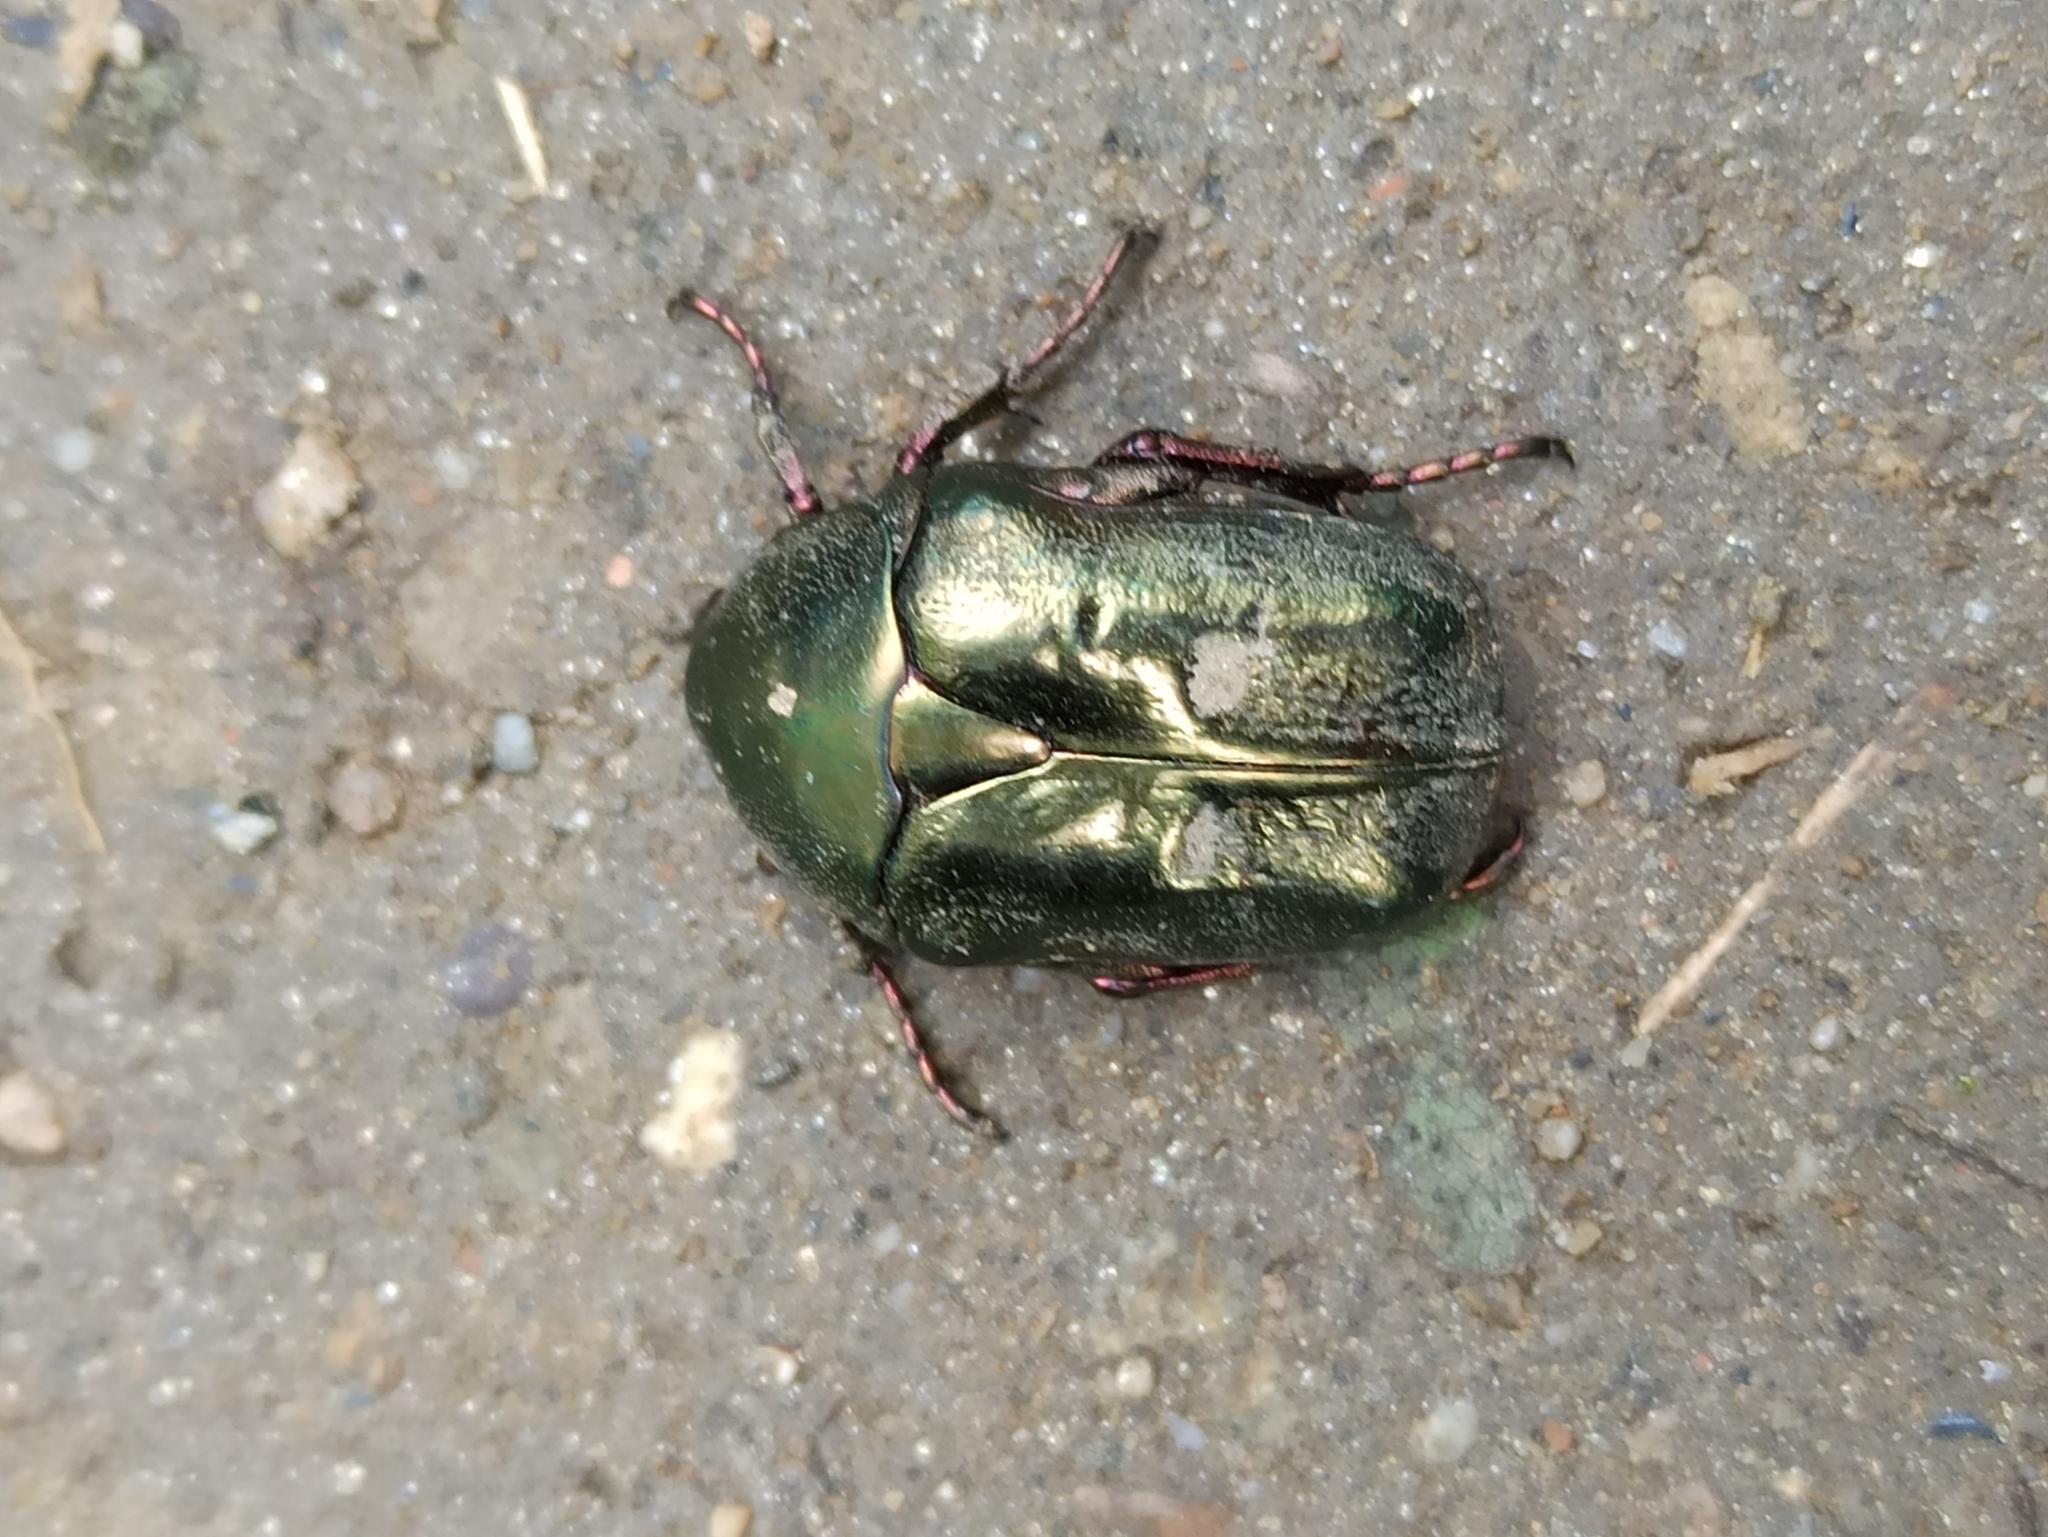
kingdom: Animalia
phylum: Arthropoda
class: Insecta
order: Coleoptera
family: Scarabaeidae
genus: Protaetia
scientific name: Protaetia cuprea
